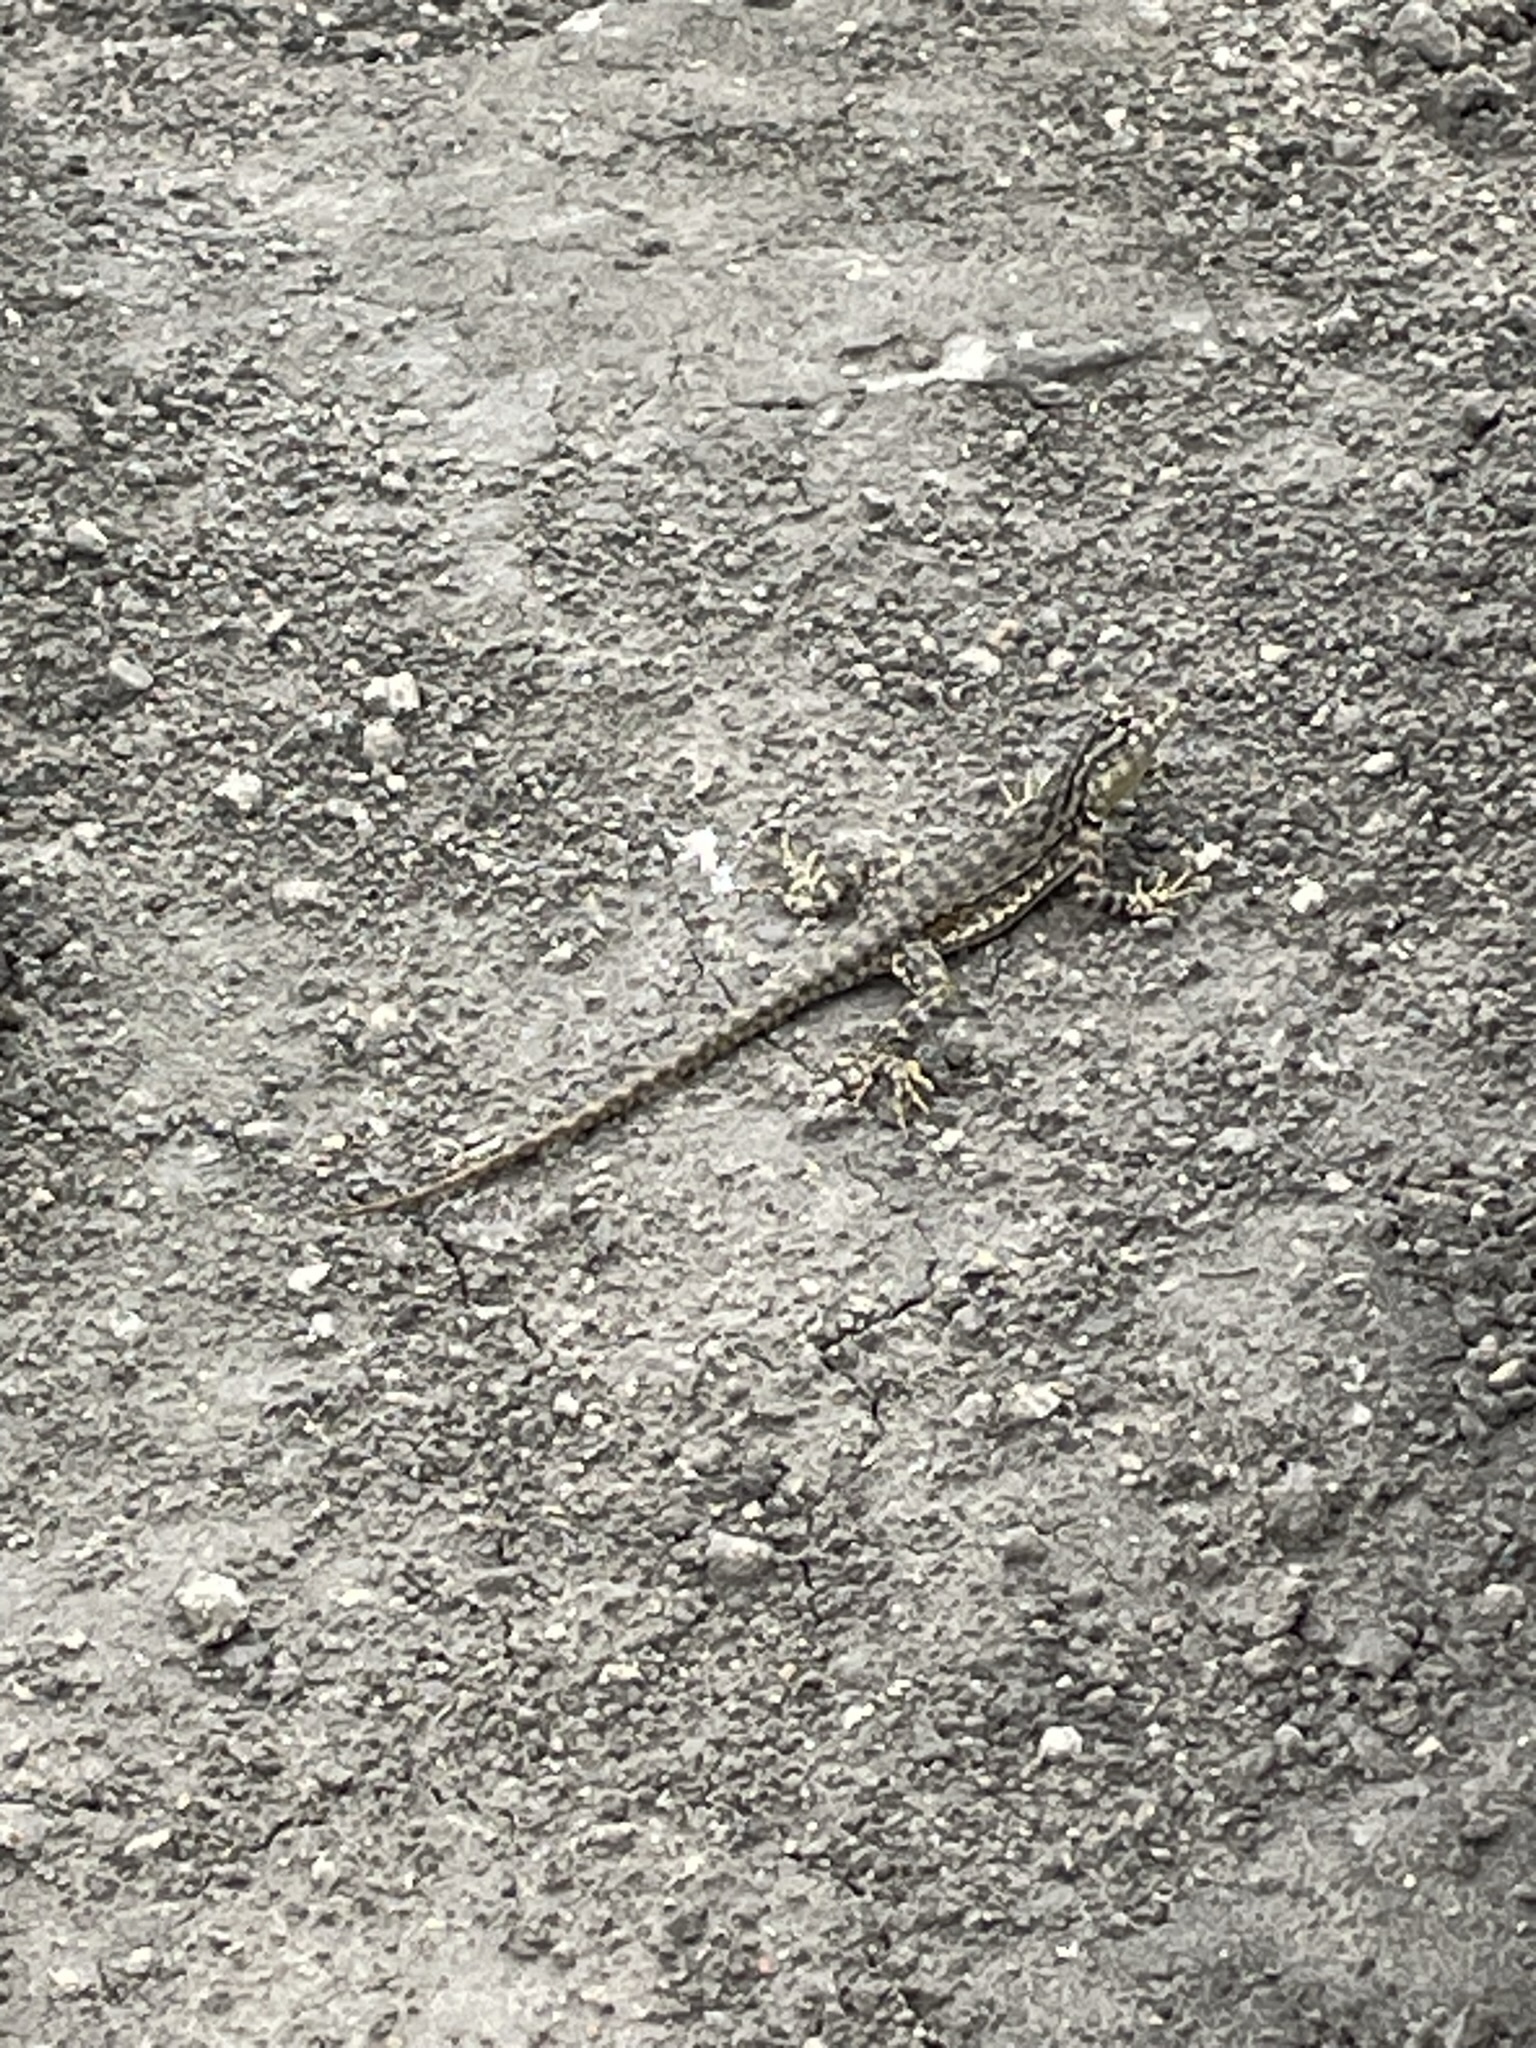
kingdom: Animalia
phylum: Chordata
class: Squamata
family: Tropiduridae
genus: Microlophus
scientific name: Microlophus tigris
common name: Tiger pacific iguana
